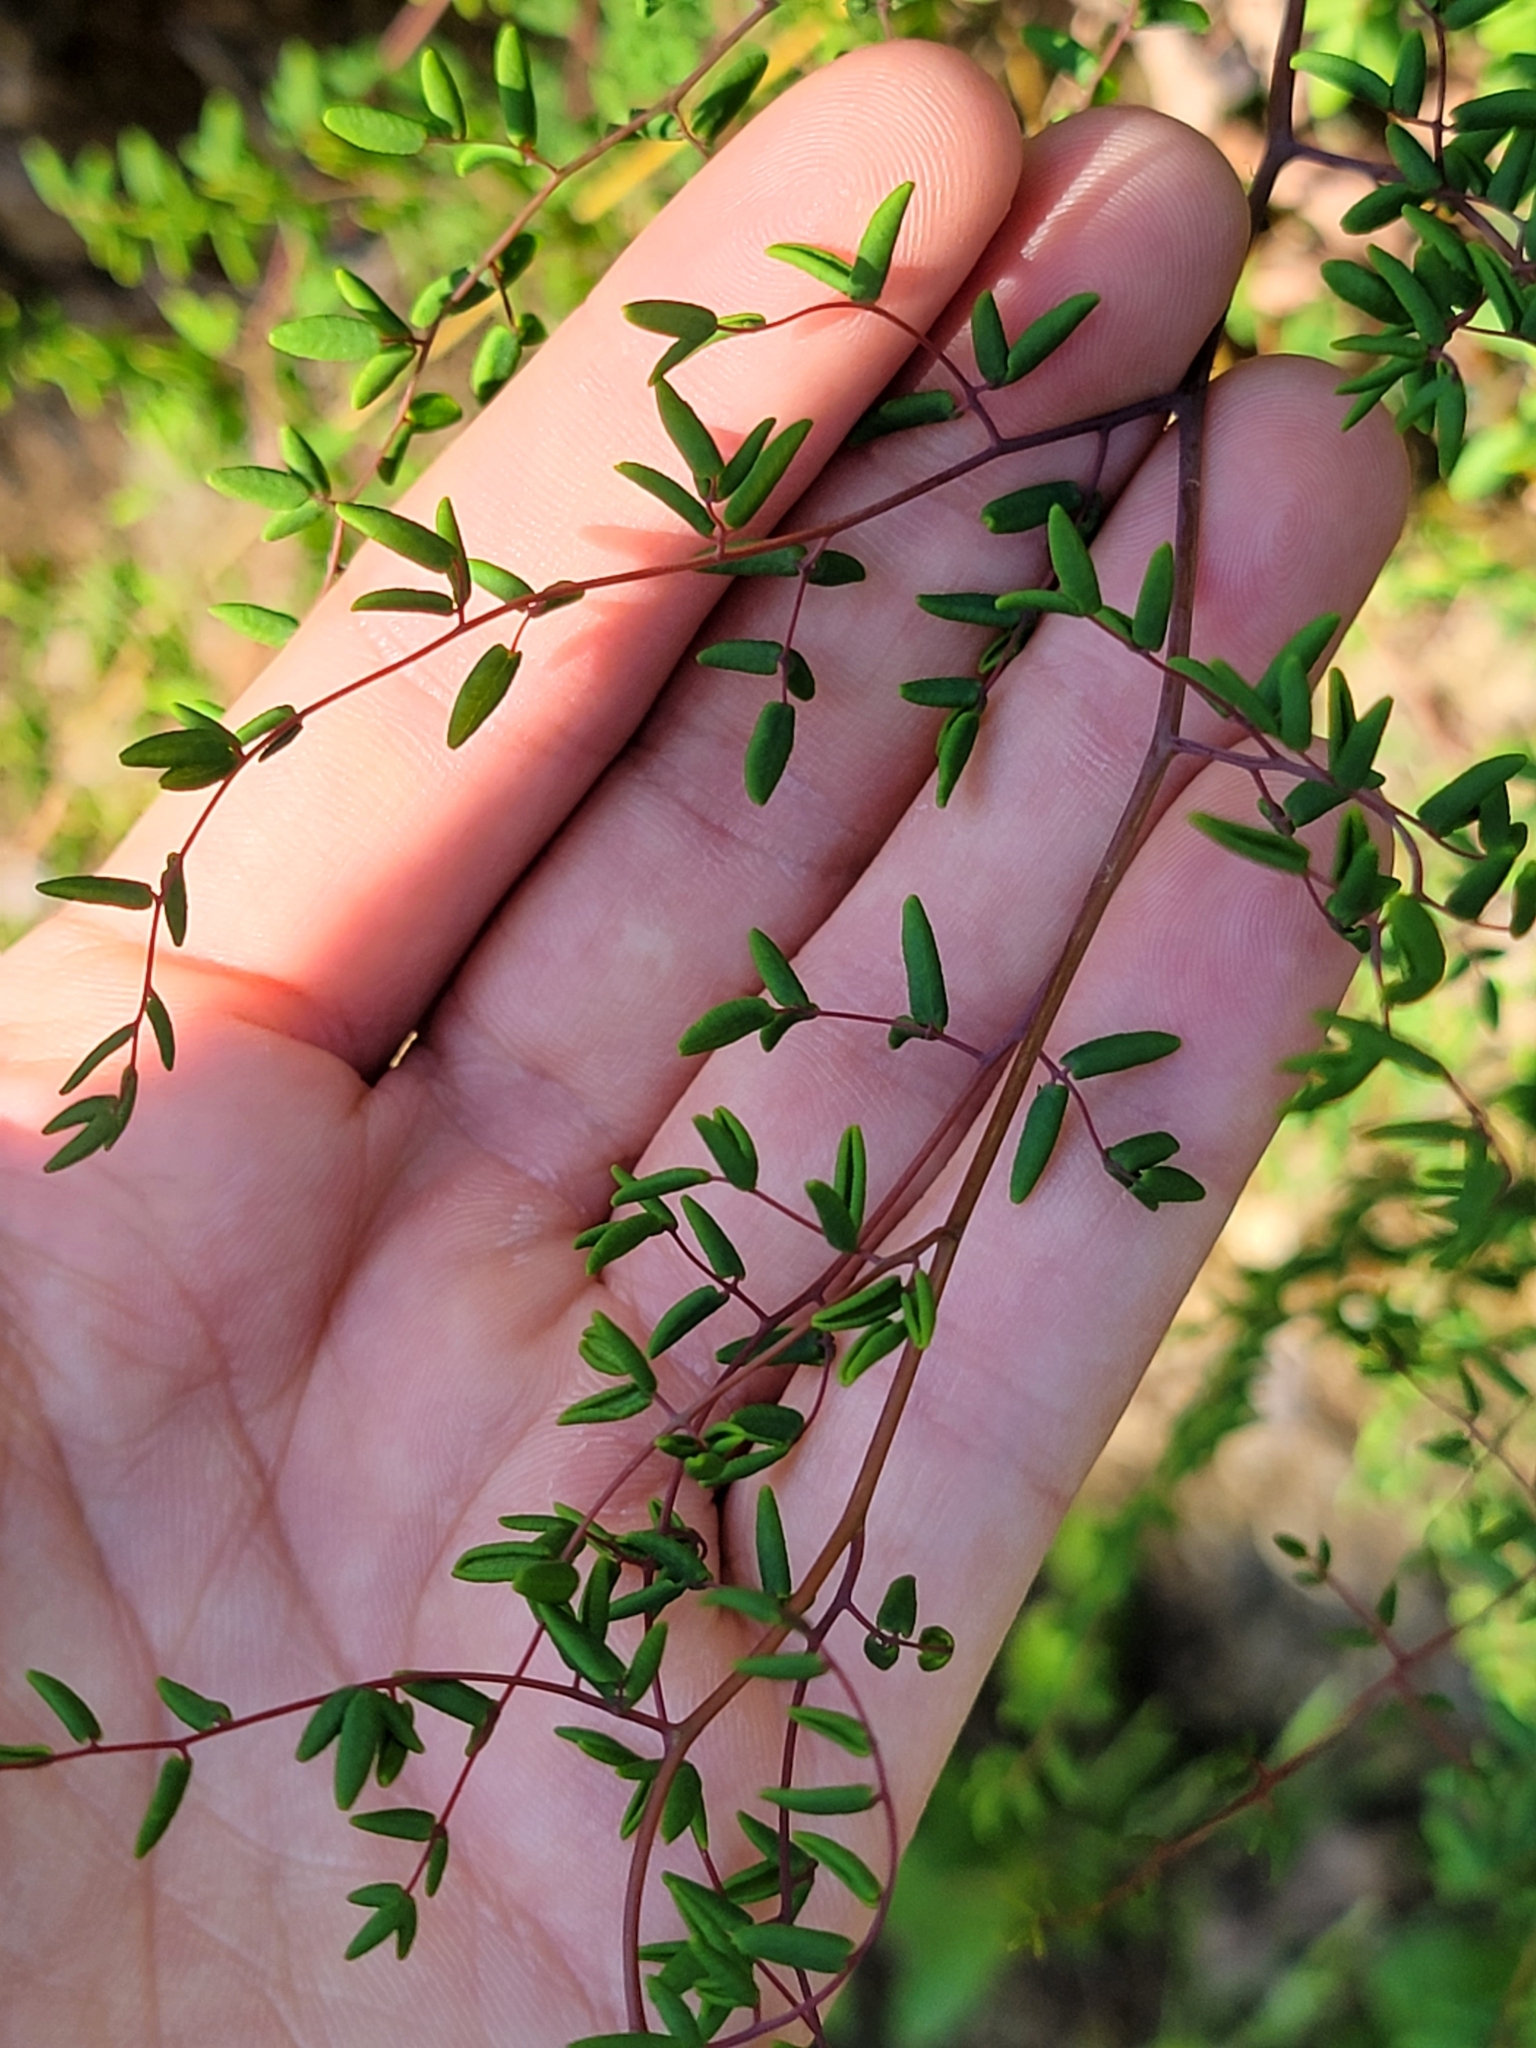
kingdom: Plantae
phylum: Tracheophyta
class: Polypodiopsida
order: Polypodiales
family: Pteridaceae
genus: Pellaea
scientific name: Pellaea andromedifolia
